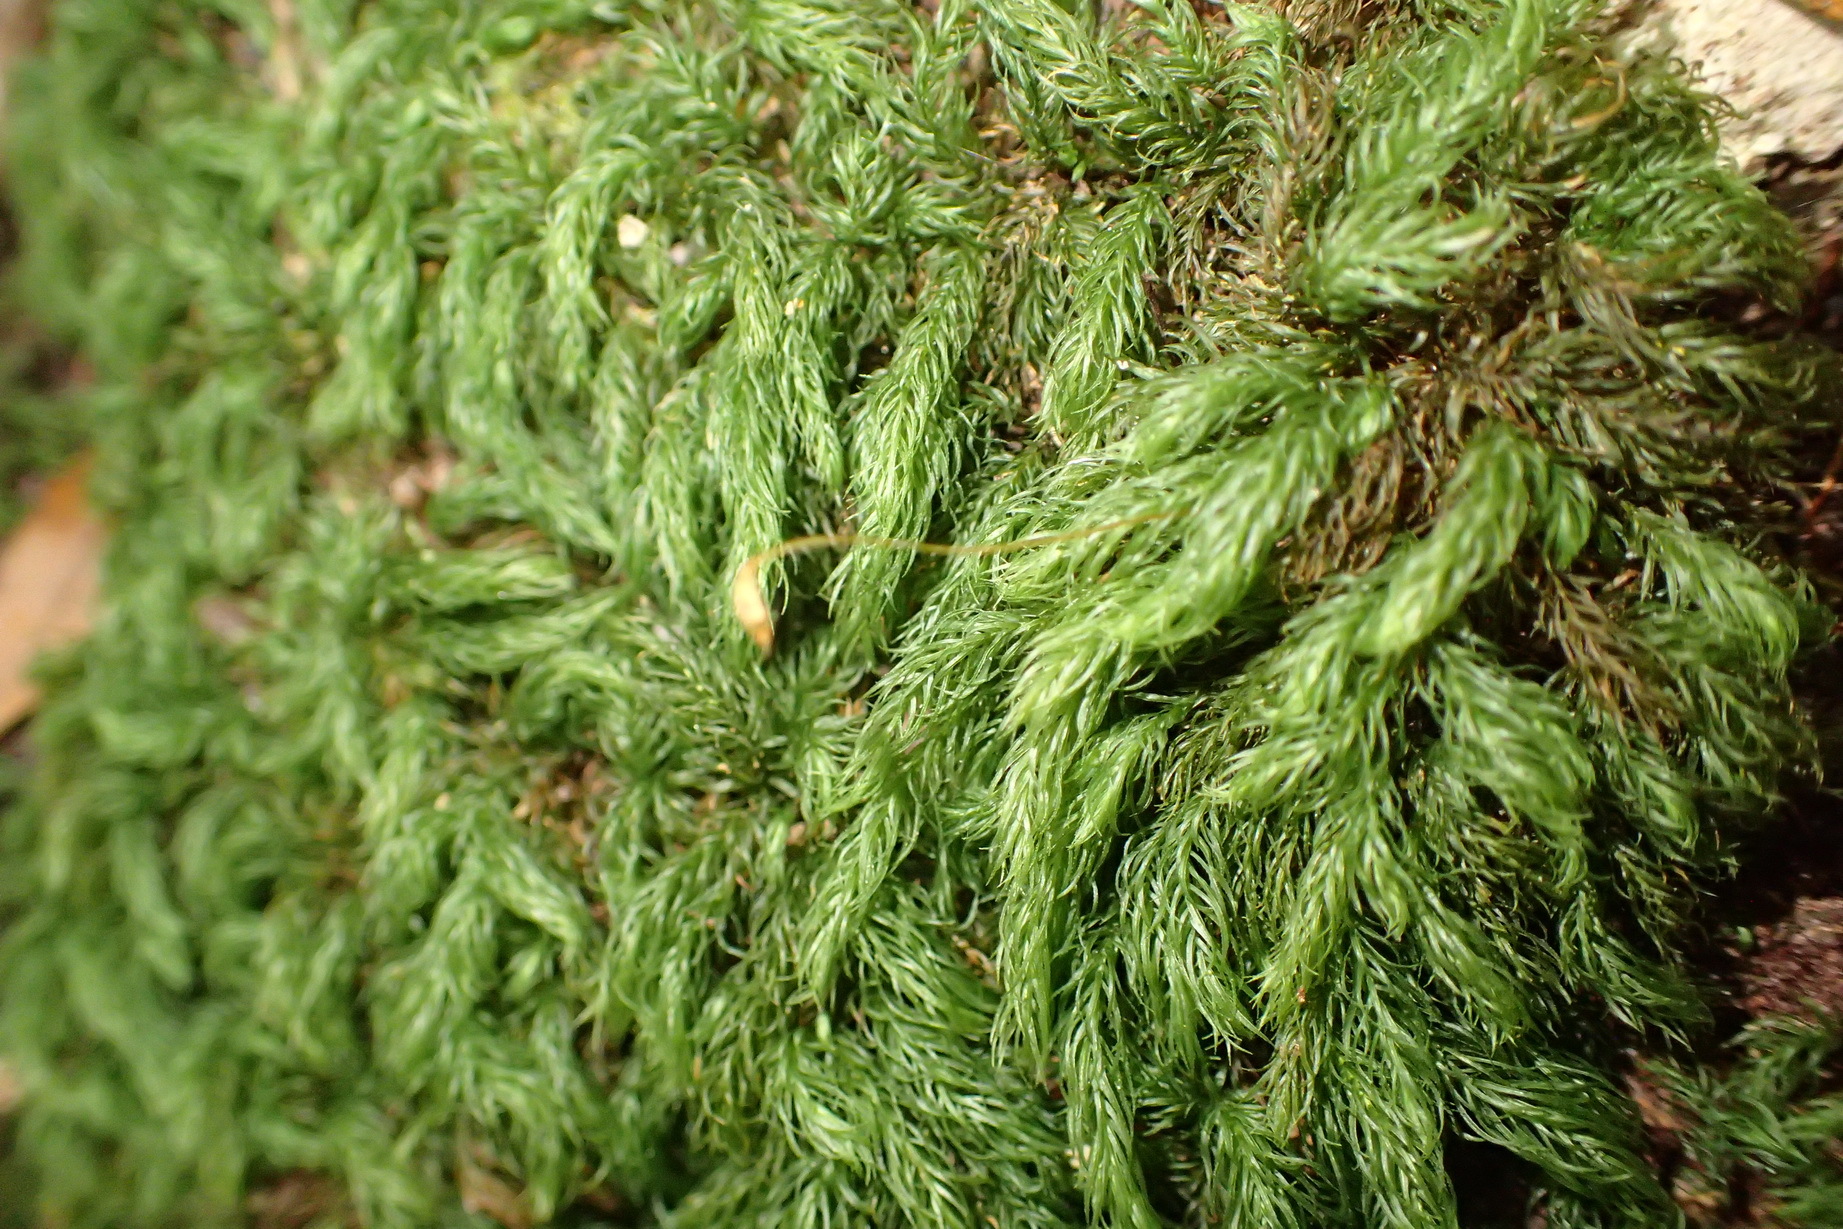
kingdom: Plantae
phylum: Bryophyta
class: Bryopsida
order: Rhizogoniales
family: Calomniaceae
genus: Pyrrhobryum
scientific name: Pyrrhobryum spiniforme
